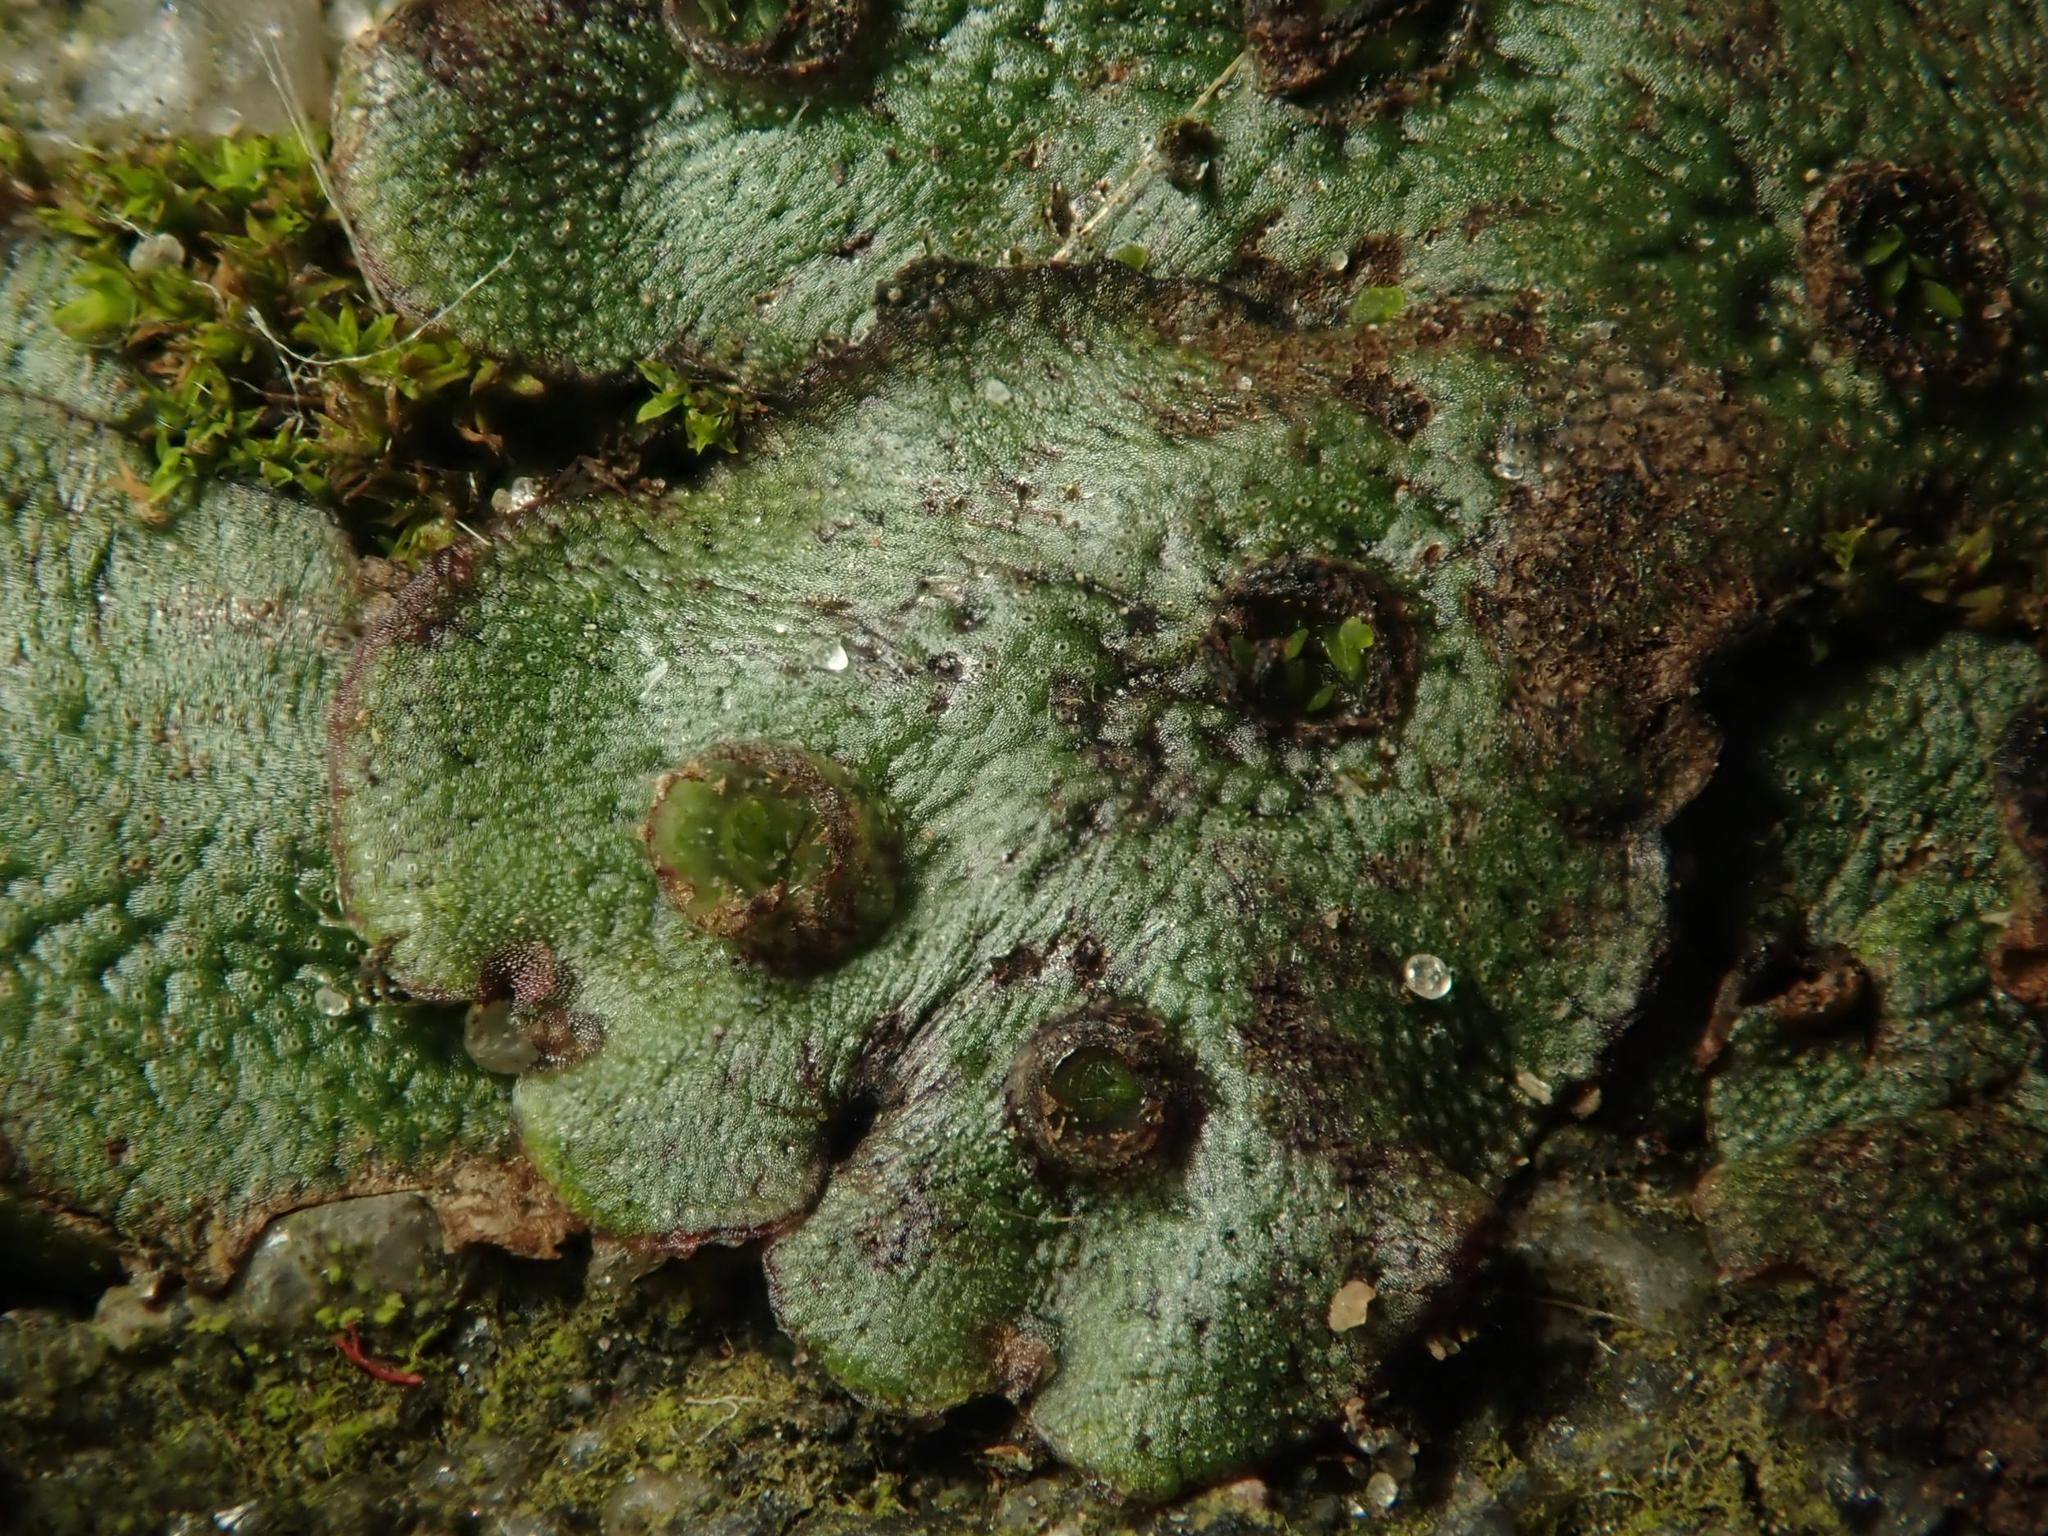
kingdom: Plantae
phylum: Marchantiophyta
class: Marchantiopsida
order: Marchantiales
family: Marchantiaceae
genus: Marchantia
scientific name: Marchantia polymorpha
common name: Common liverwort
